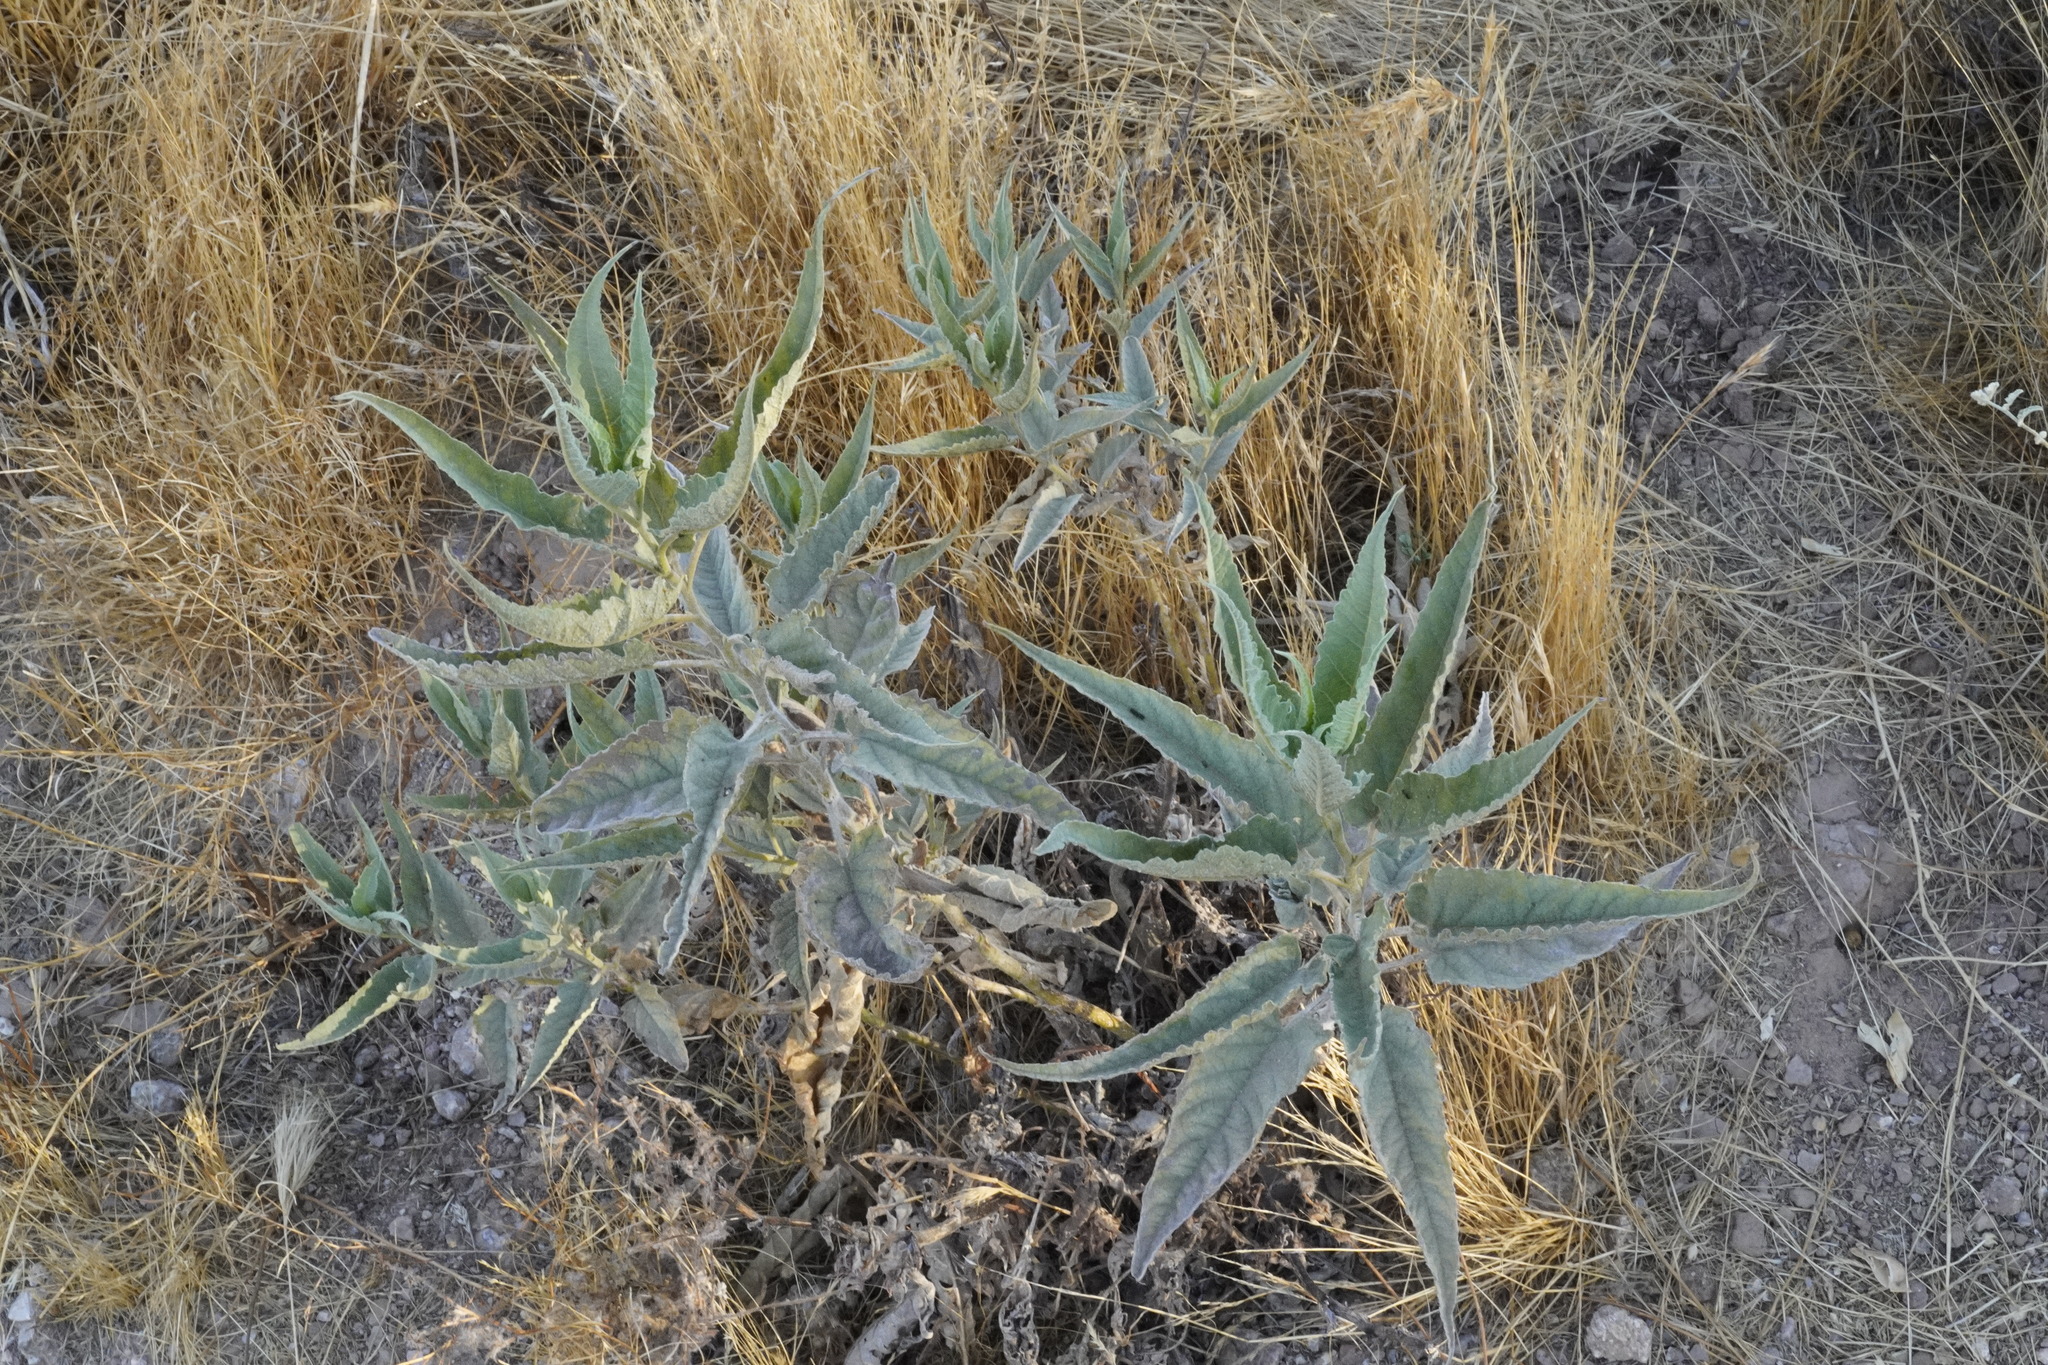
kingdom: Plantae
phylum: Tracheophyta
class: Magnoliopsida
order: Asterales
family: Asteraceae
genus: Ambrosia
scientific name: Ambrosia ambrosioides
